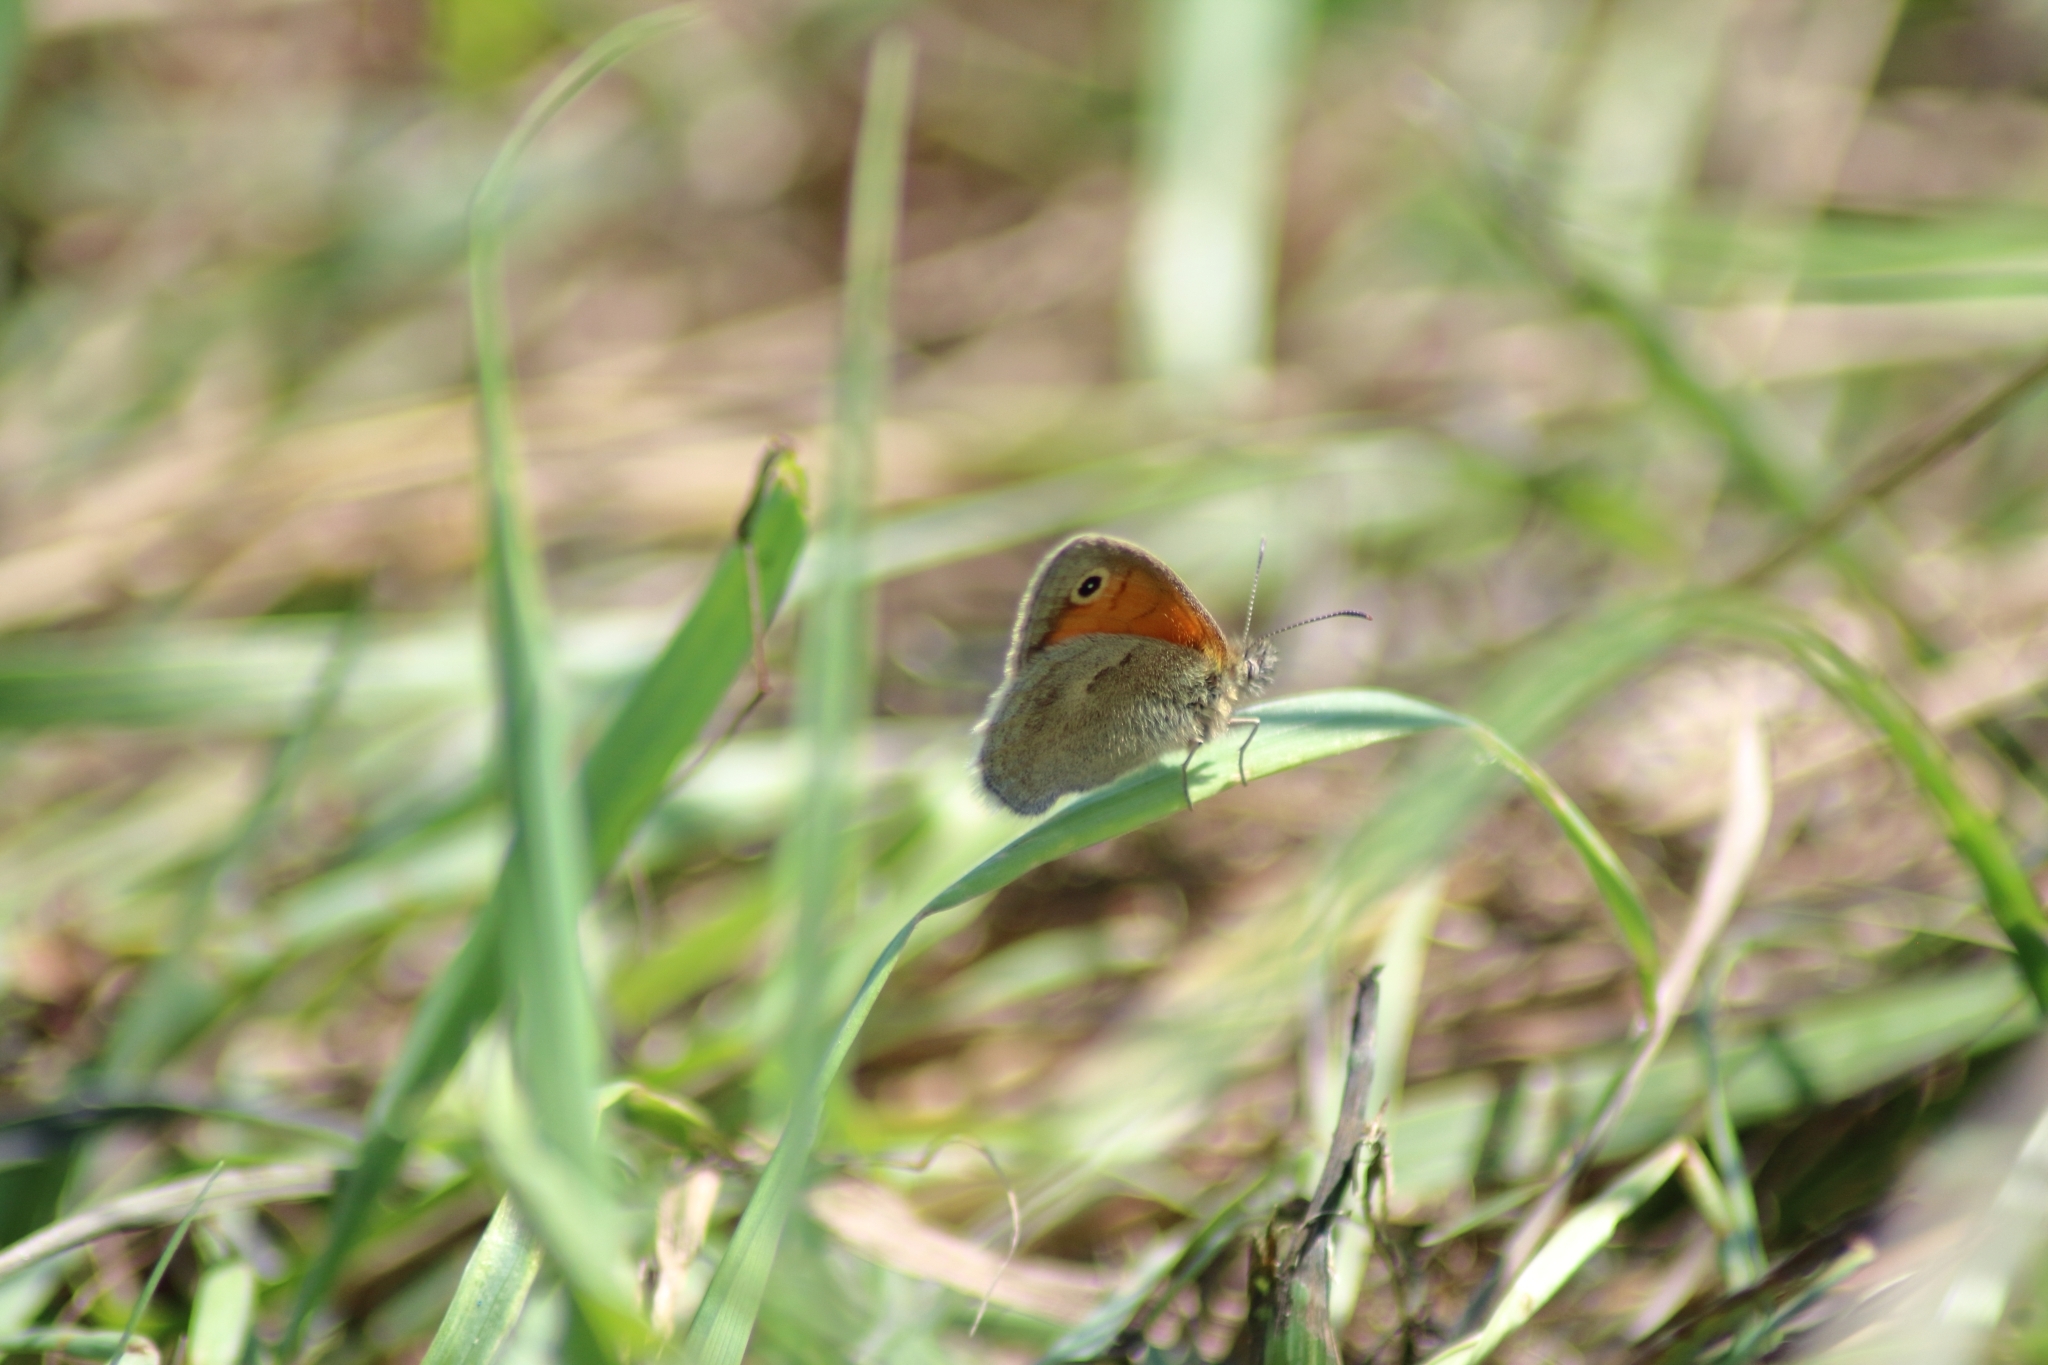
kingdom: Animalia
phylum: Arthropoda
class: Insecta
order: Lepidoptera
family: Nymphalidae
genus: Coenonympha
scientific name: Coenonympha pamphilus
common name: Small heath
